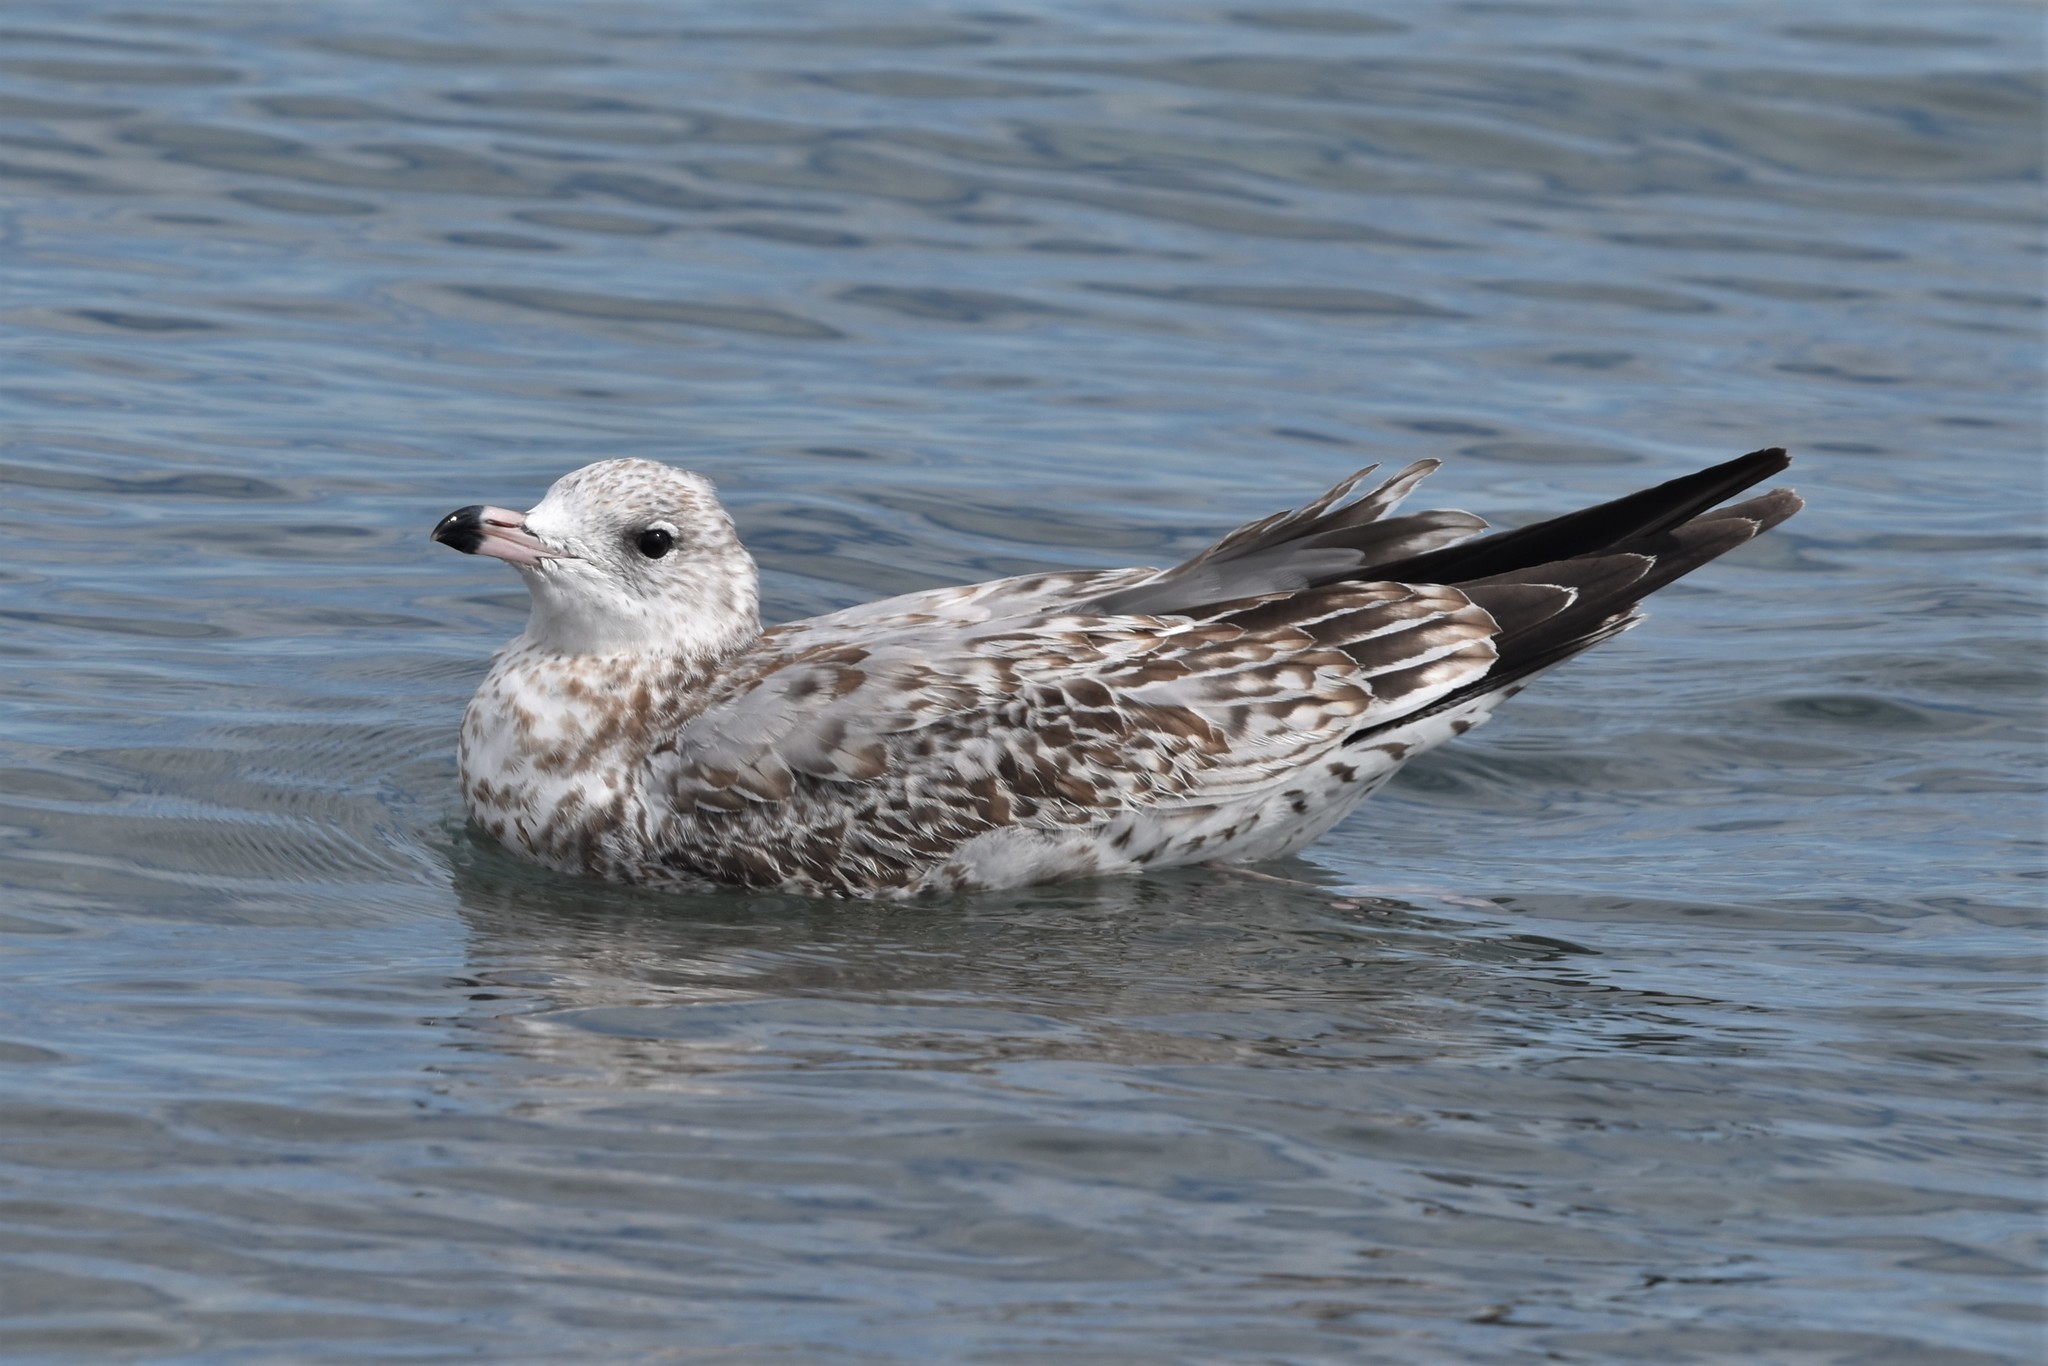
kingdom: Animalia
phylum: Chordata
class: Aves
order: Charadriiformes
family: Laridae
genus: Larus
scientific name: Larus delawarensis
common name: Ring-billed gull
